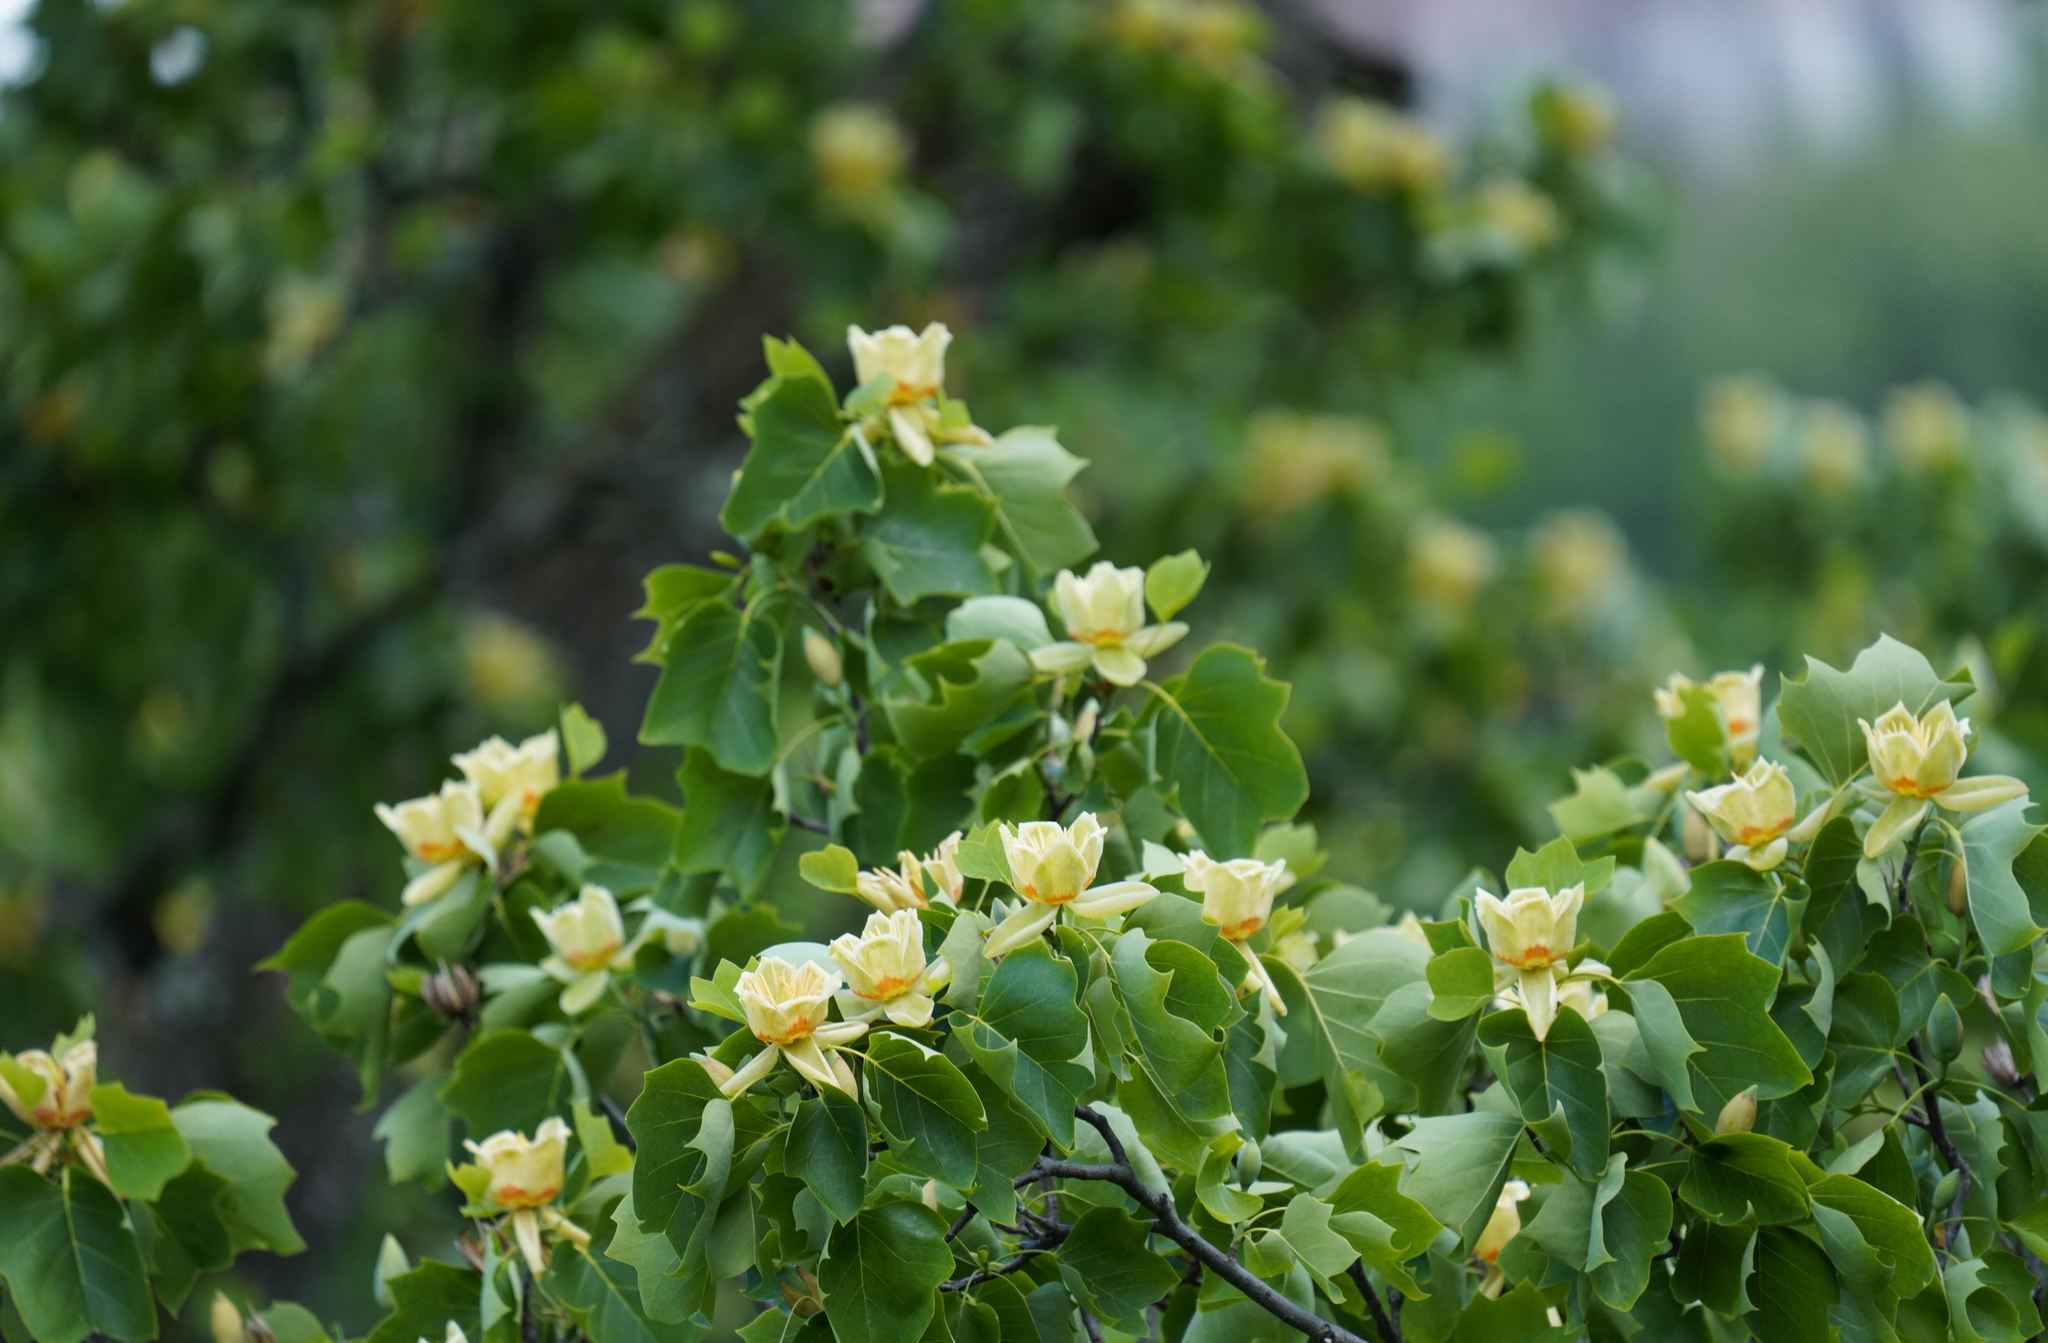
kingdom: Plantae
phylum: Tracheophyta
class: Magnoliopsida
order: Magnoliales
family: Magnoliaceae
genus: Liriodendron
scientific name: Liriodendron tulipifera
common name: Tulip tree
